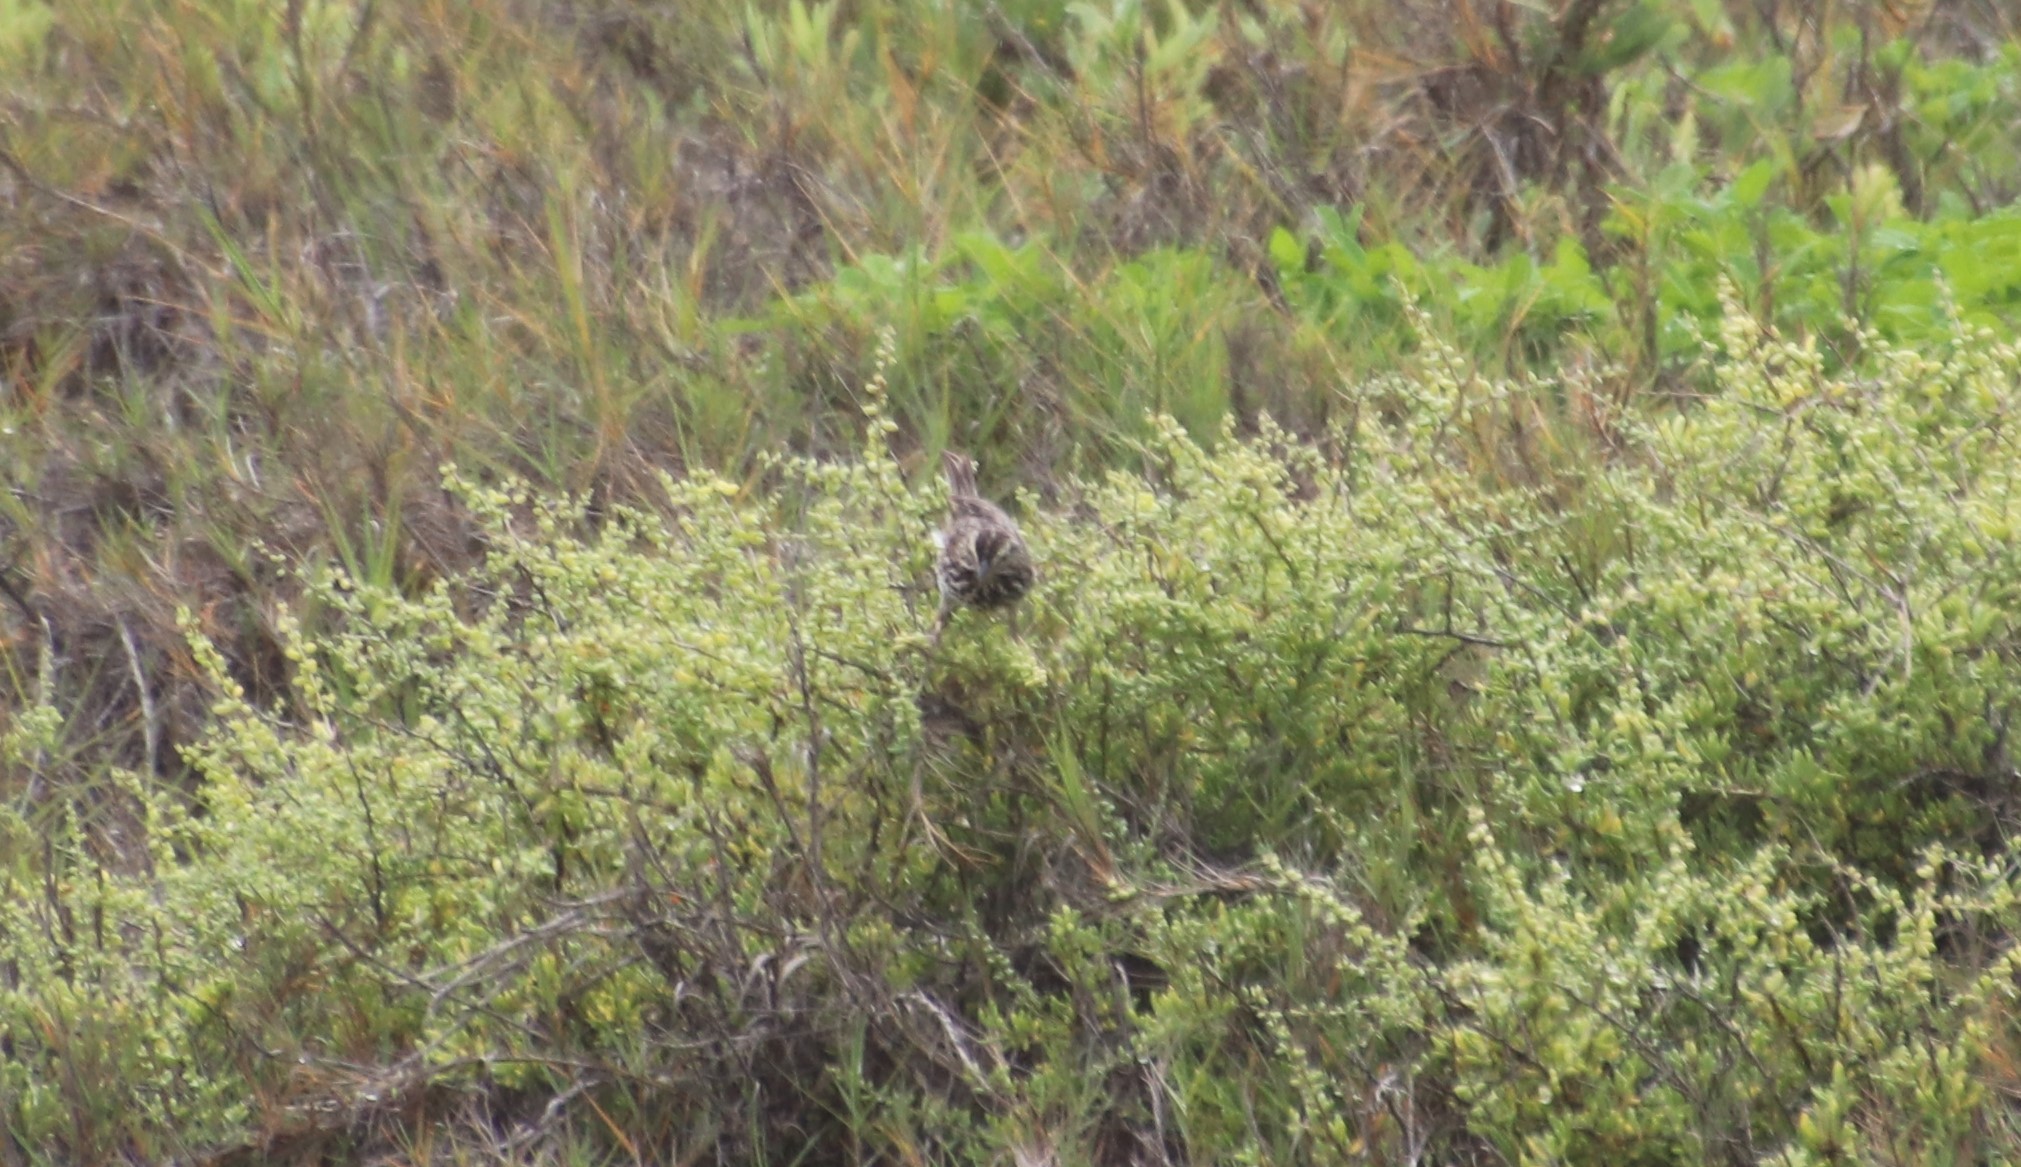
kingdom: Animalia
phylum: Chordata
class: Aves
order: Passeriformes
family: Passerellidae
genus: Passerculus
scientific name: Passerculus sandwichensis
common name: Savannah sparrow
